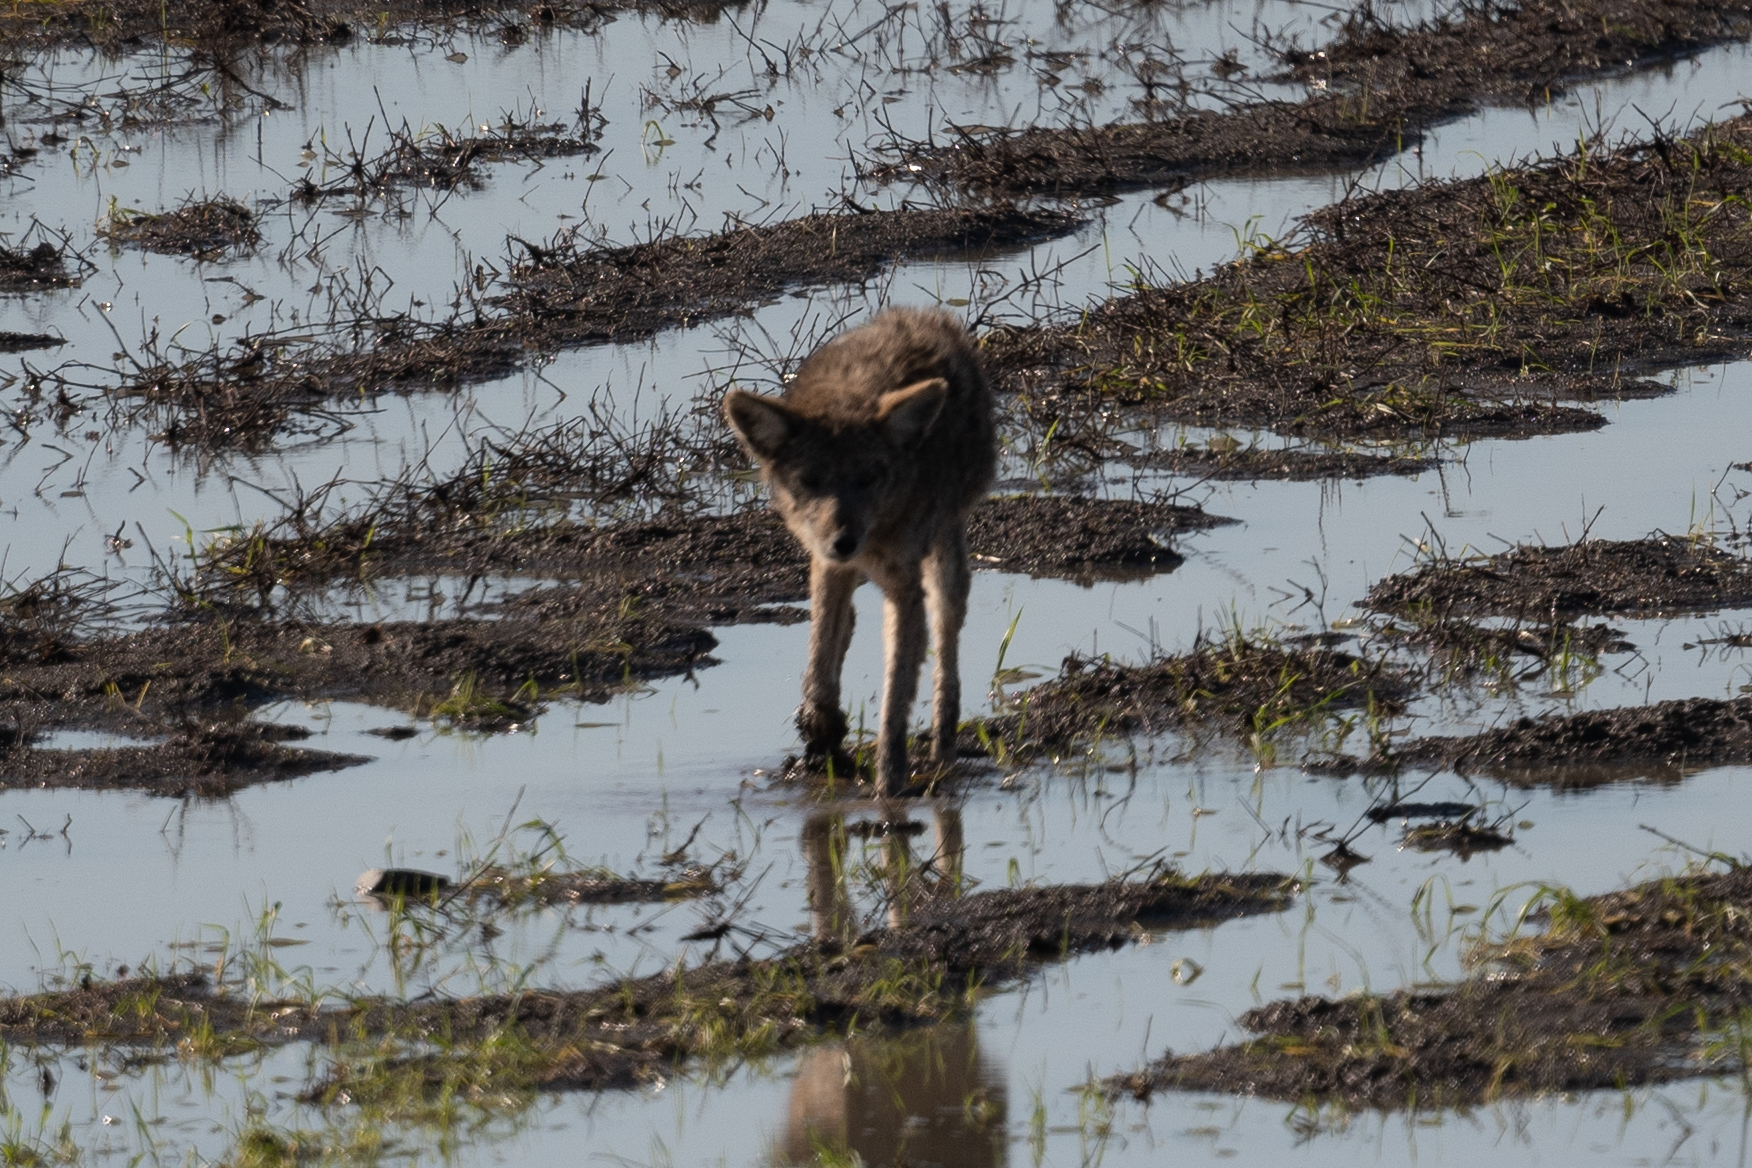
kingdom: Animalia
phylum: Chordata
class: Mammalia
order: Carnivora
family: Canidae
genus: Canis
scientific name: Canis latrans
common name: Coyote
